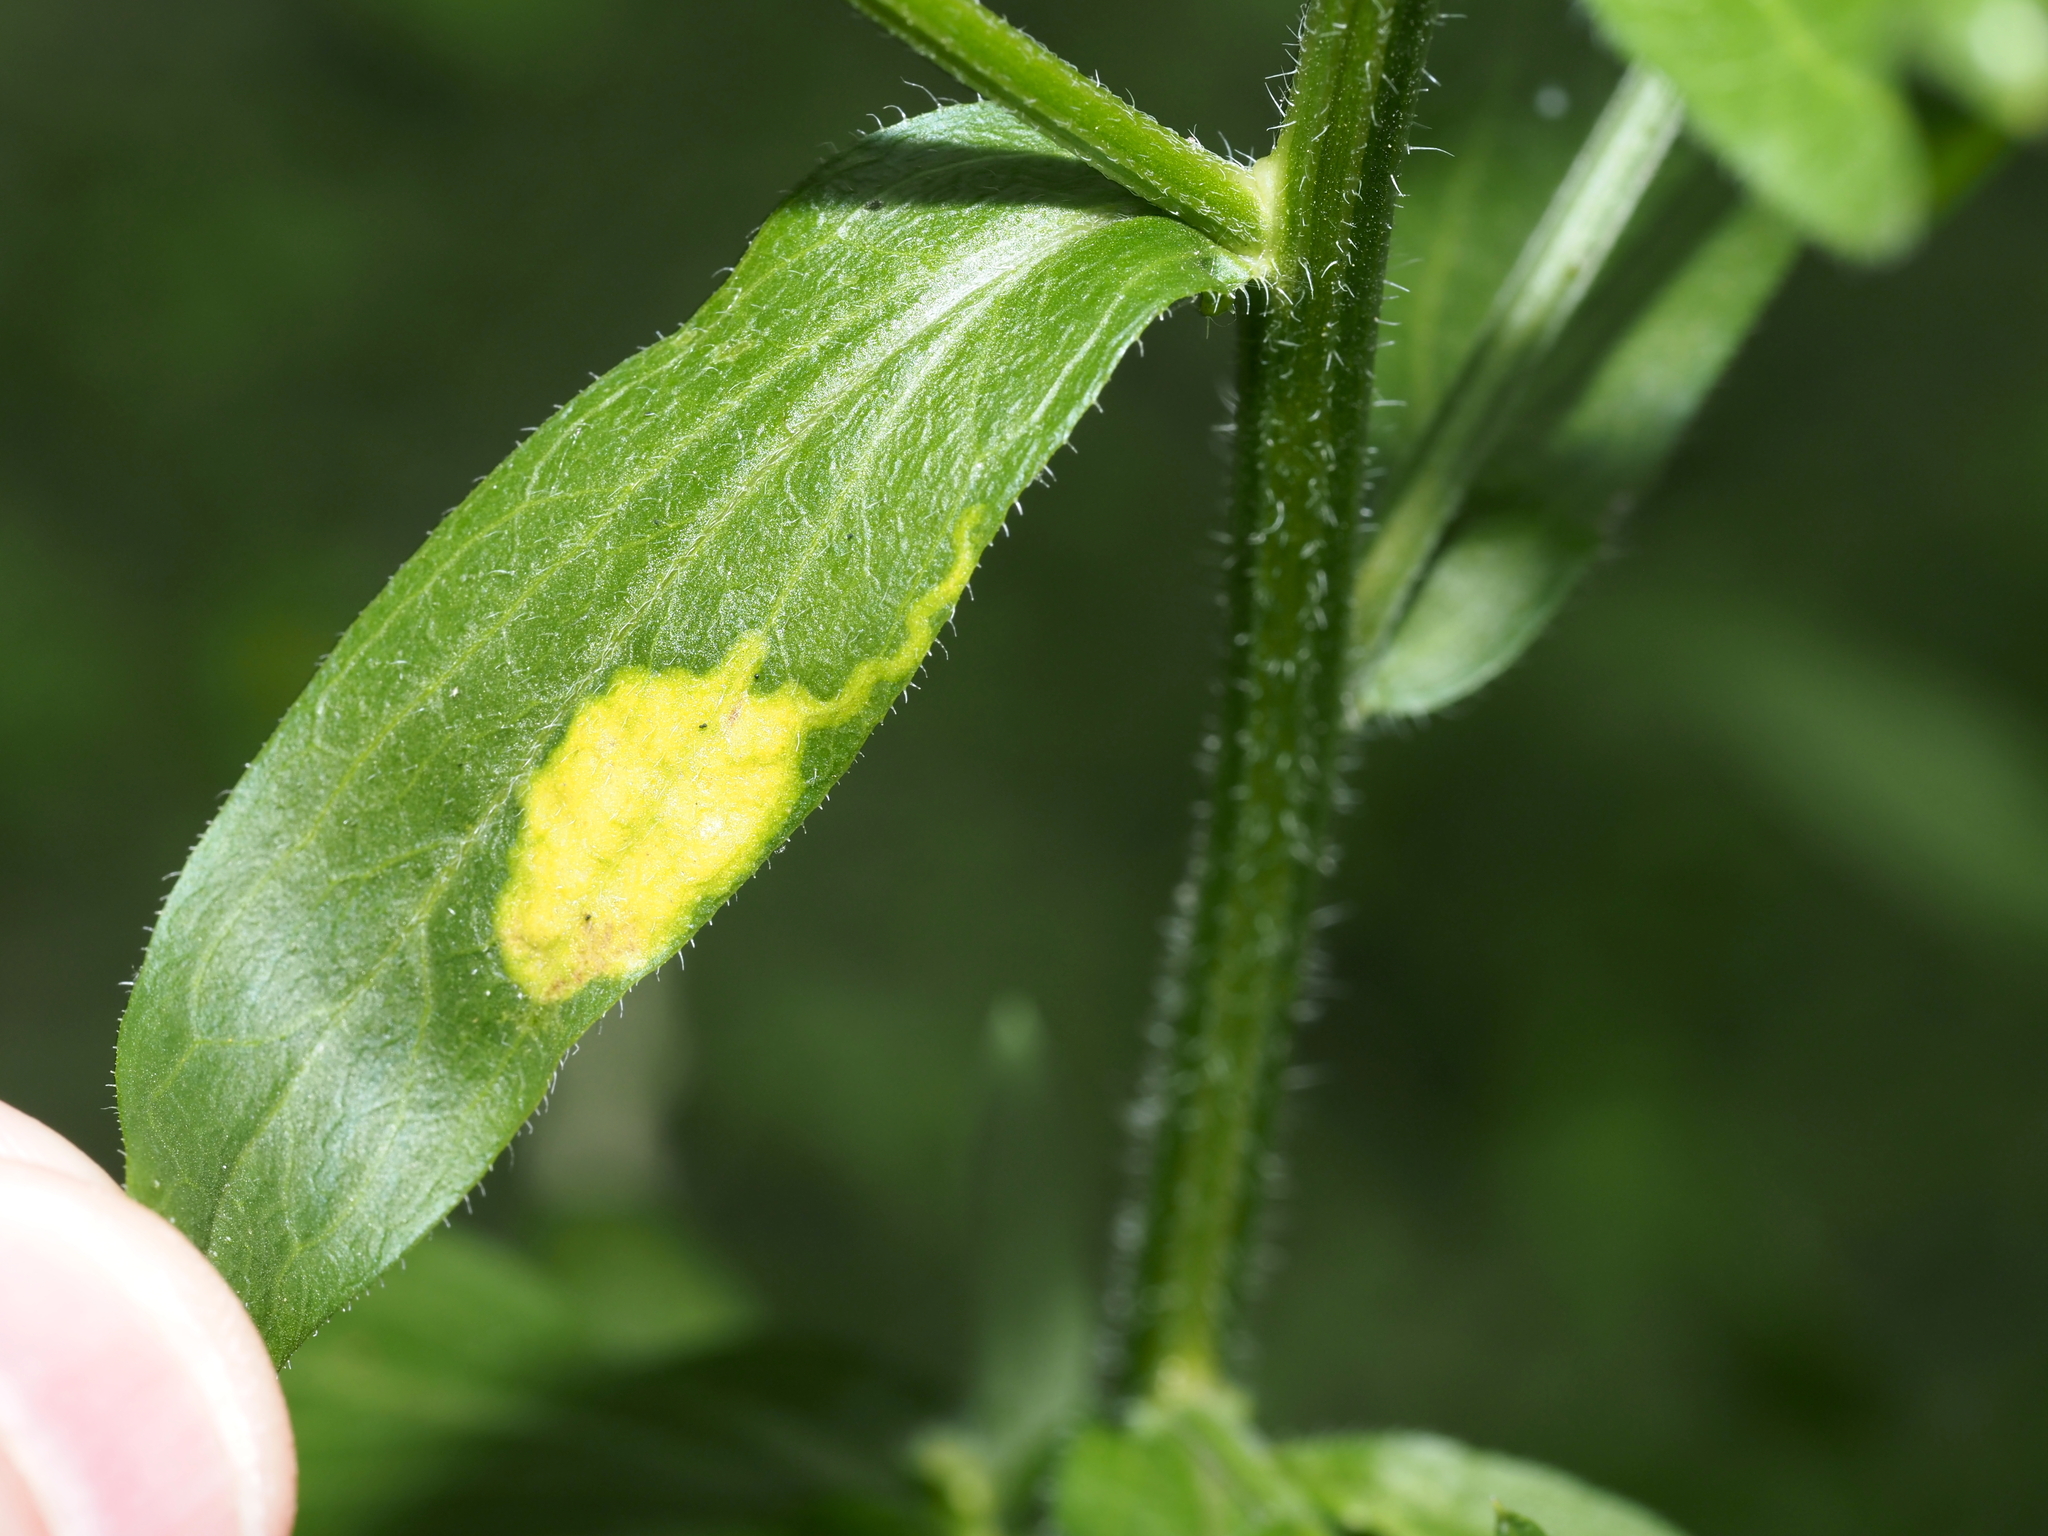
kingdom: Animalia
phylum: Arthropoda
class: Insecta
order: Lepidoptera
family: Gracillariidae
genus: Parectopa
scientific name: Parectopa plantaginisella
